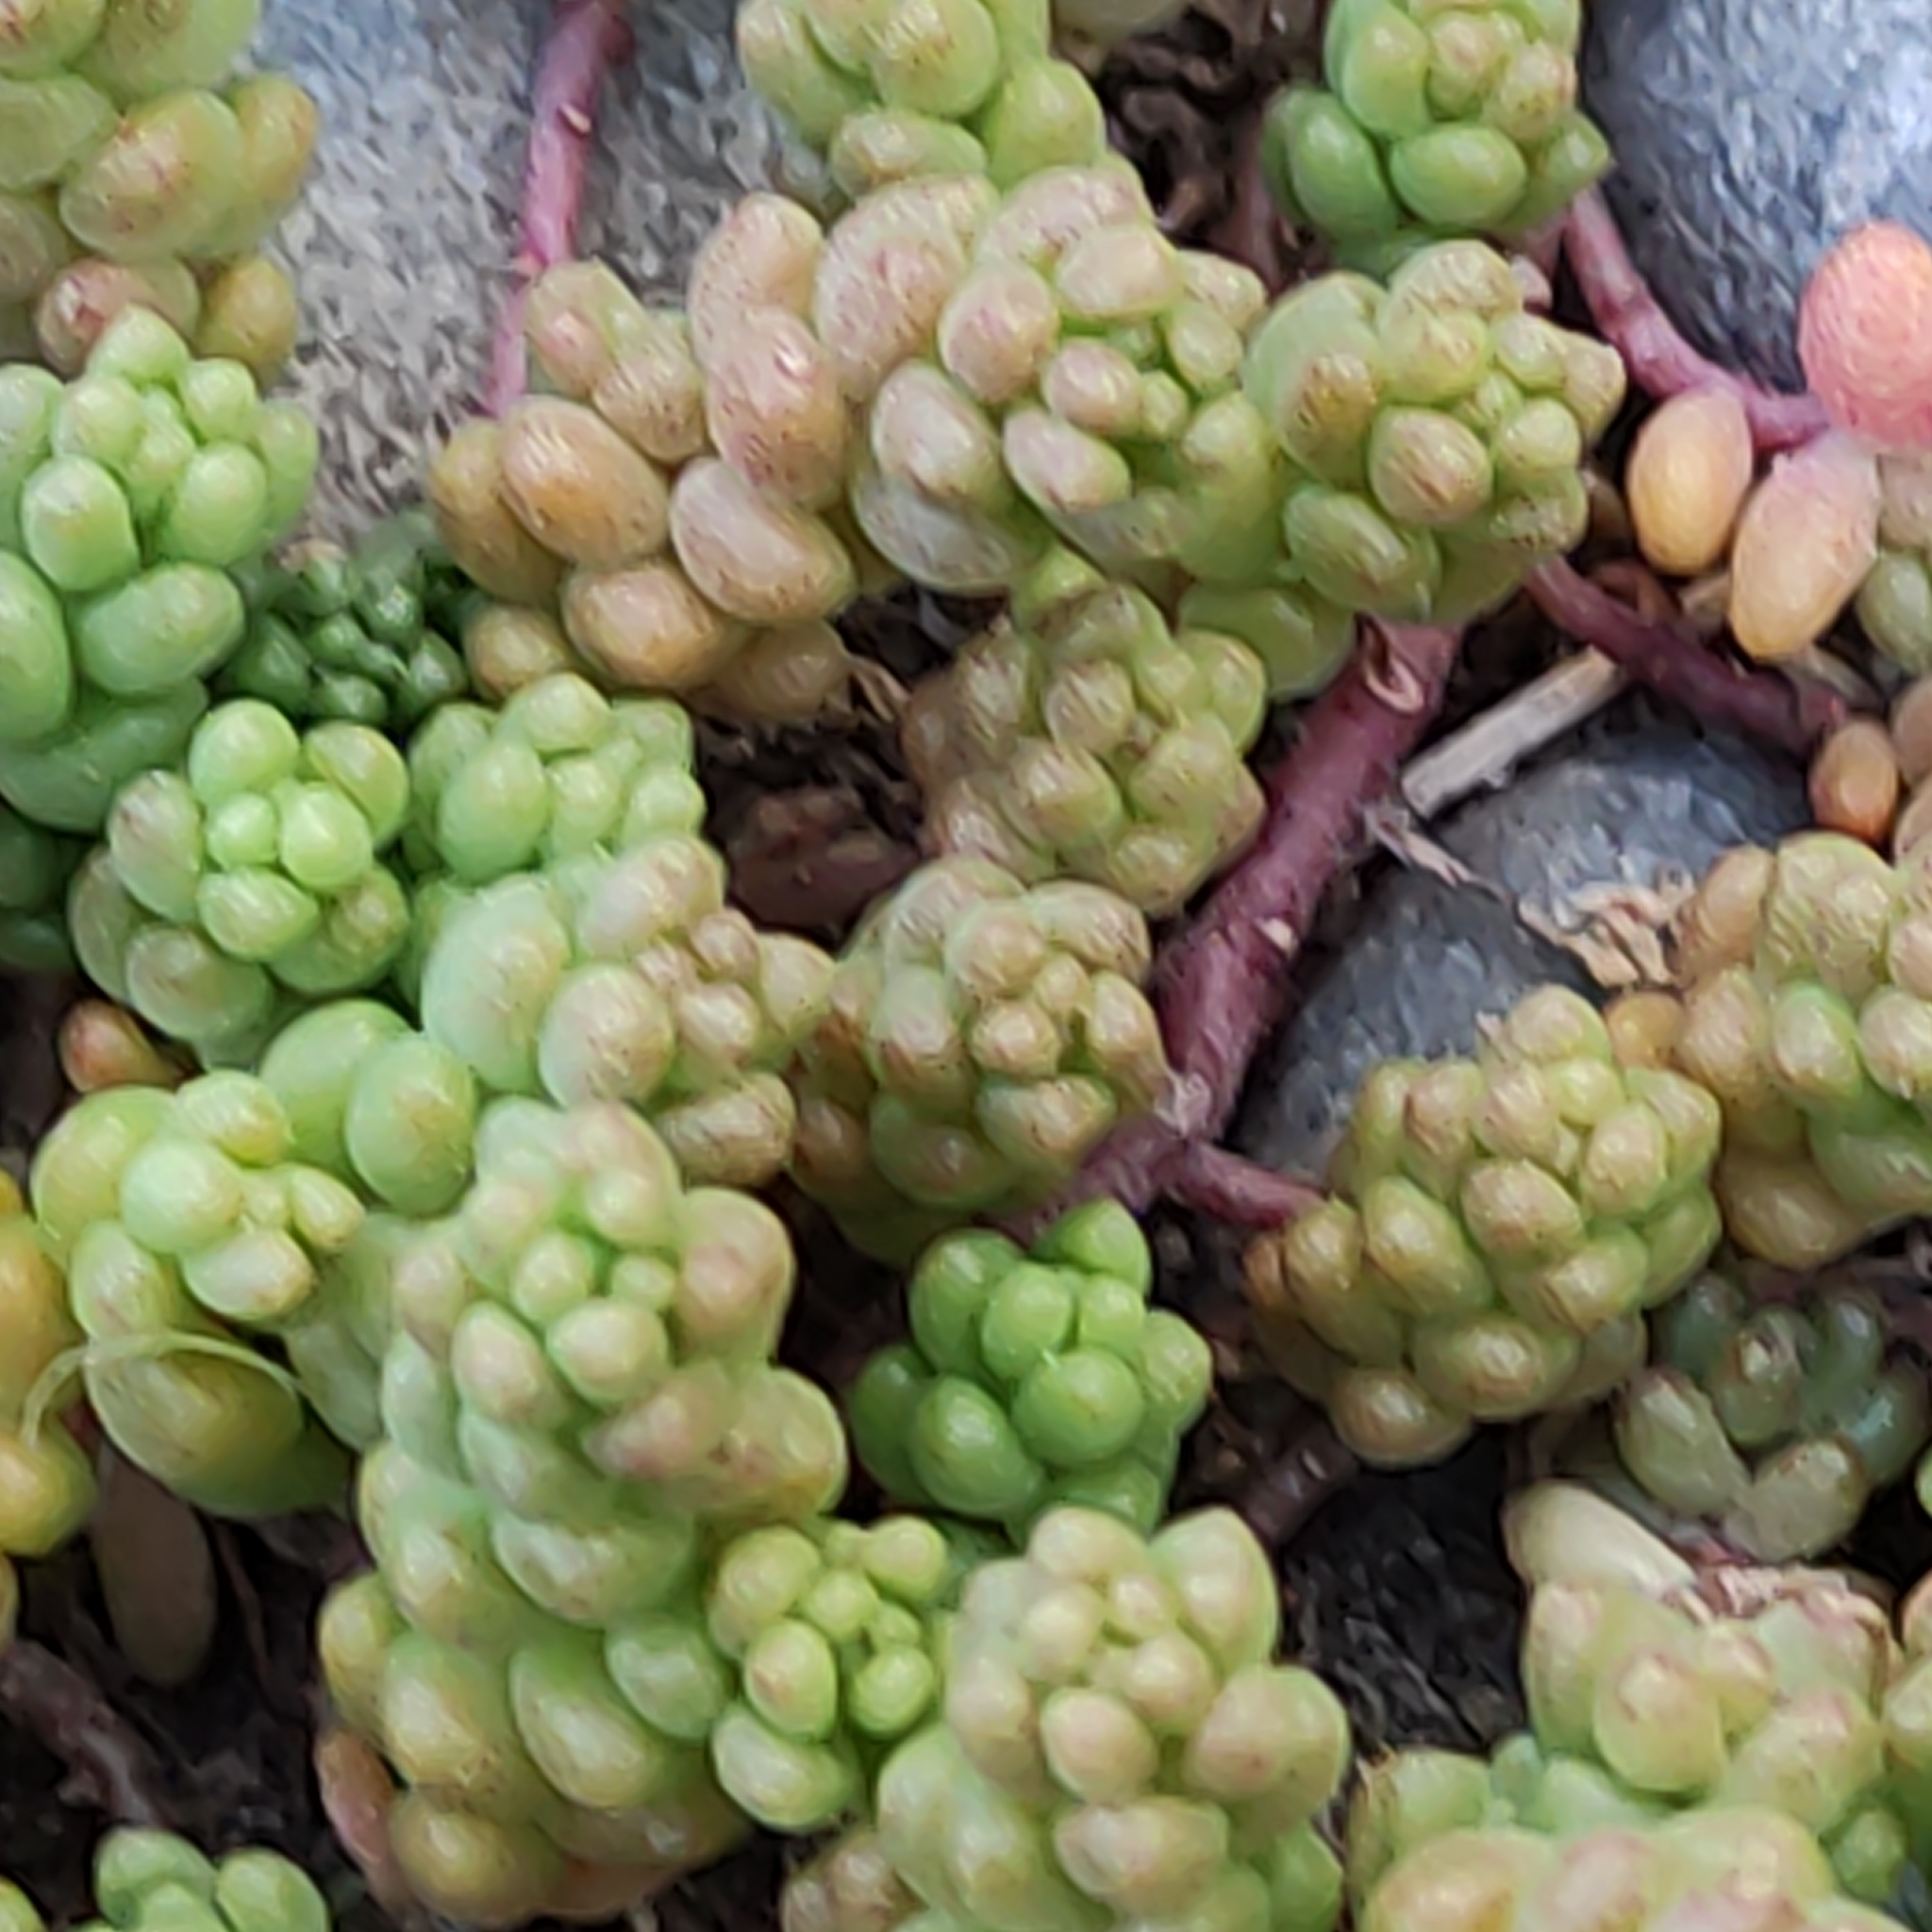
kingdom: Plantae
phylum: Tracheophyta
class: Magnoliopsida
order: Saxifragales
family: Crassulaceae
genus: Sedum
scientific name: Sedum album
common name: White stonecrop
